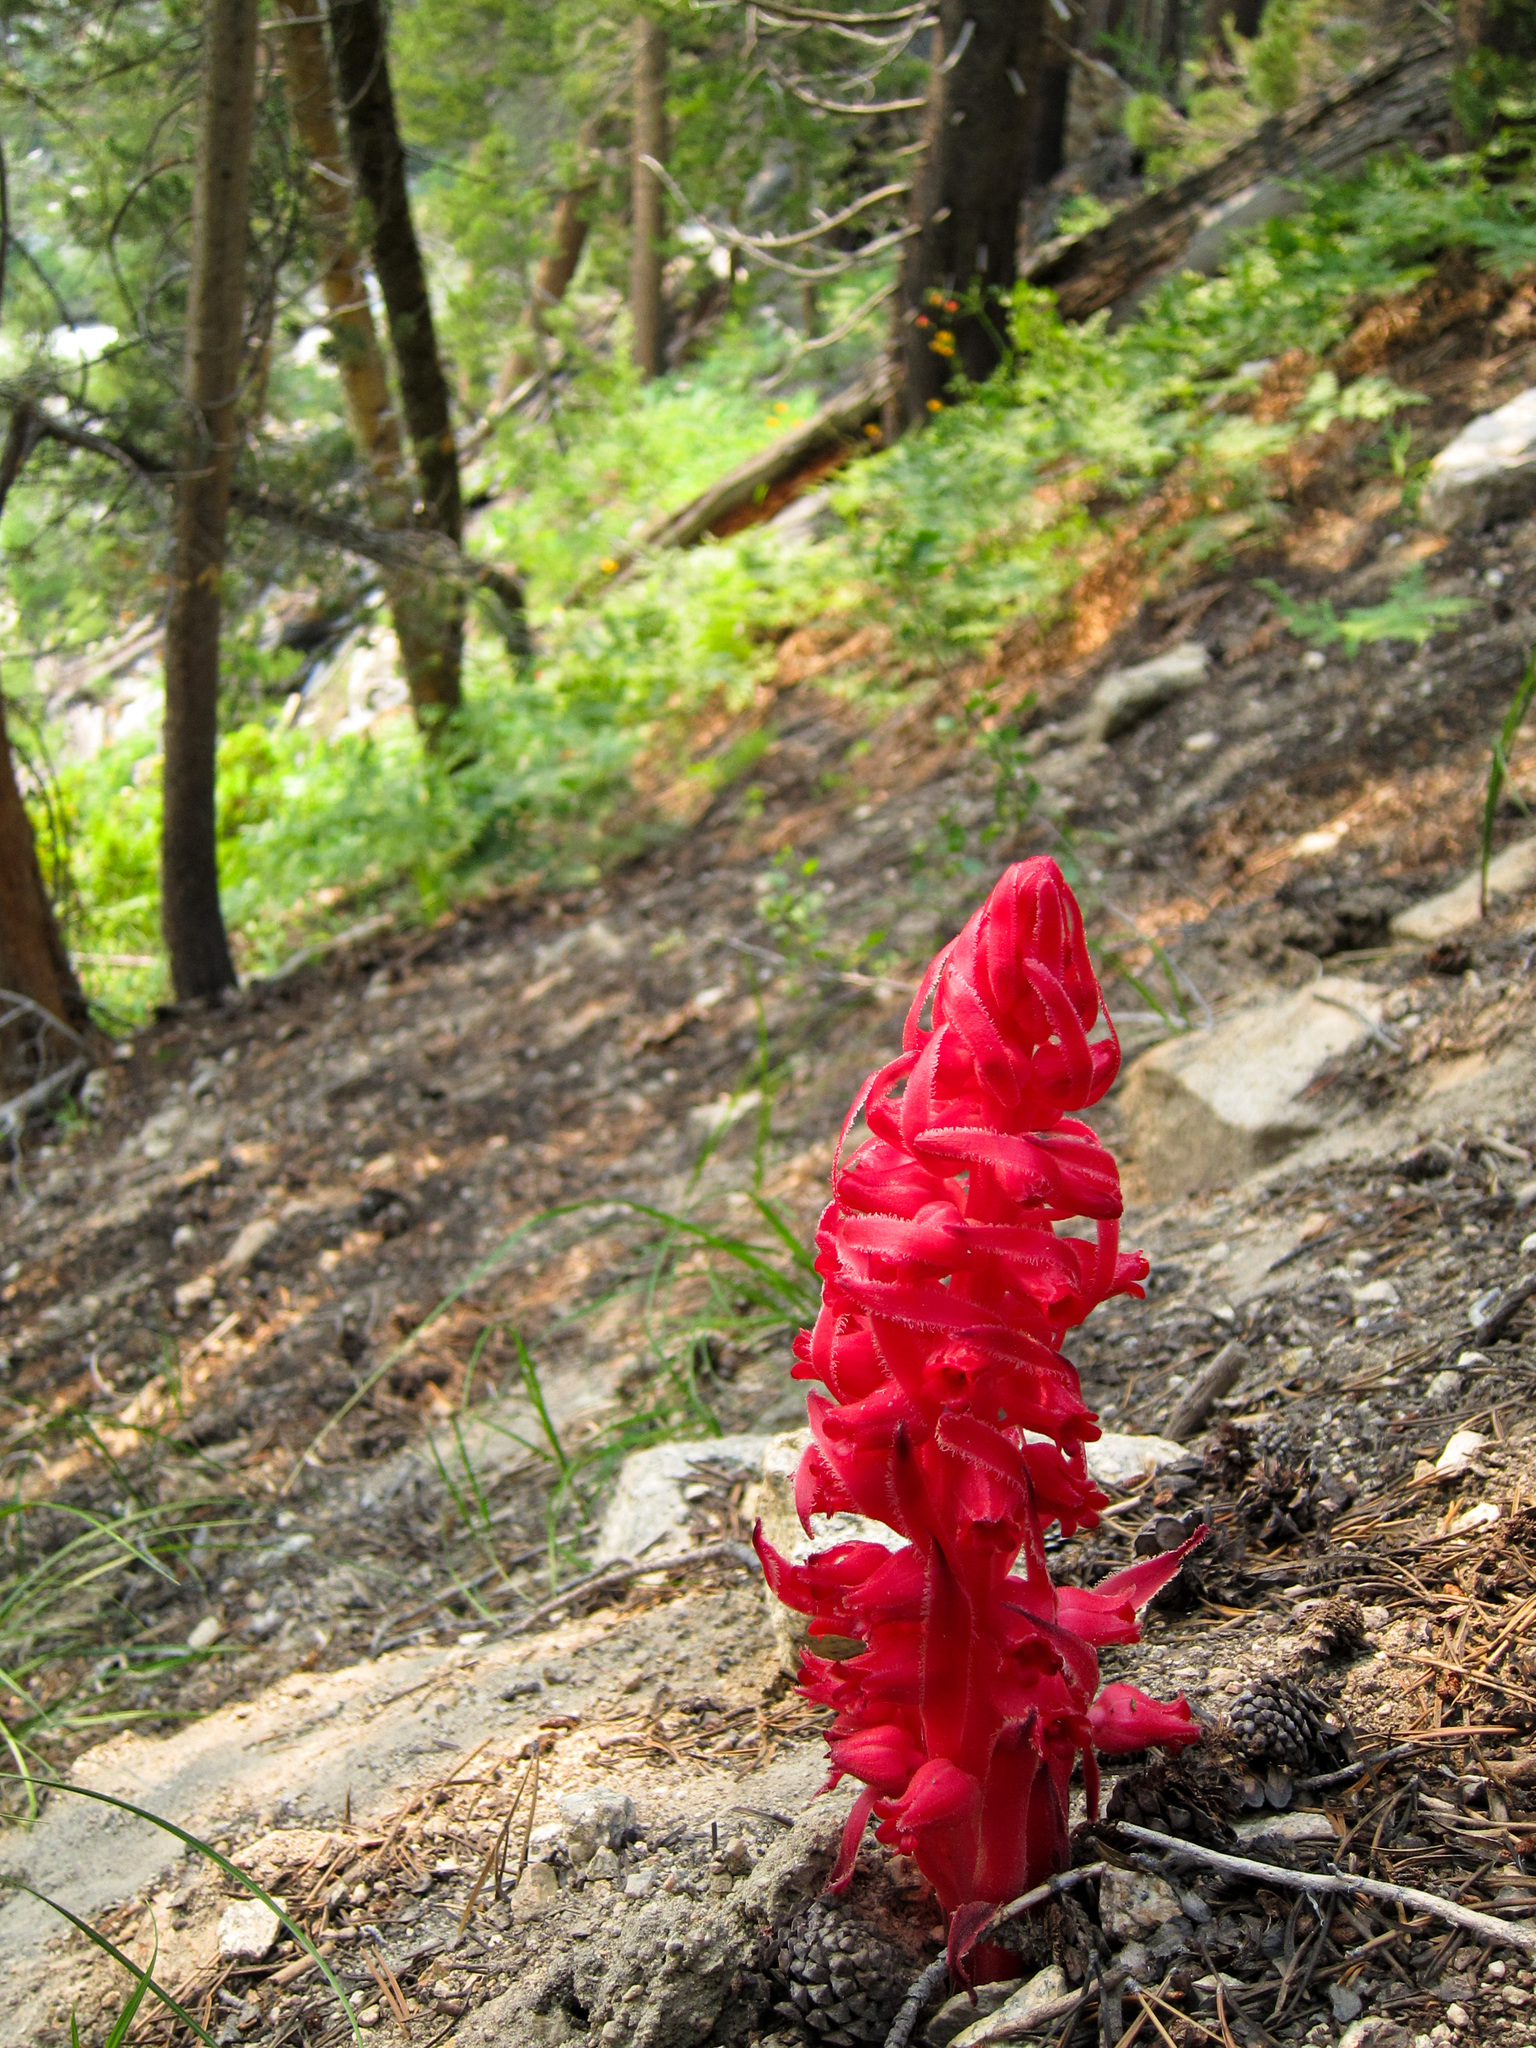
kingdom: Plantae
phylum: Tracheophyta
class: Magnoliopsida
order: Ericales
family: Ericaceae
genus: Sarcodes
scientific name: Sarcodes sanguinea
